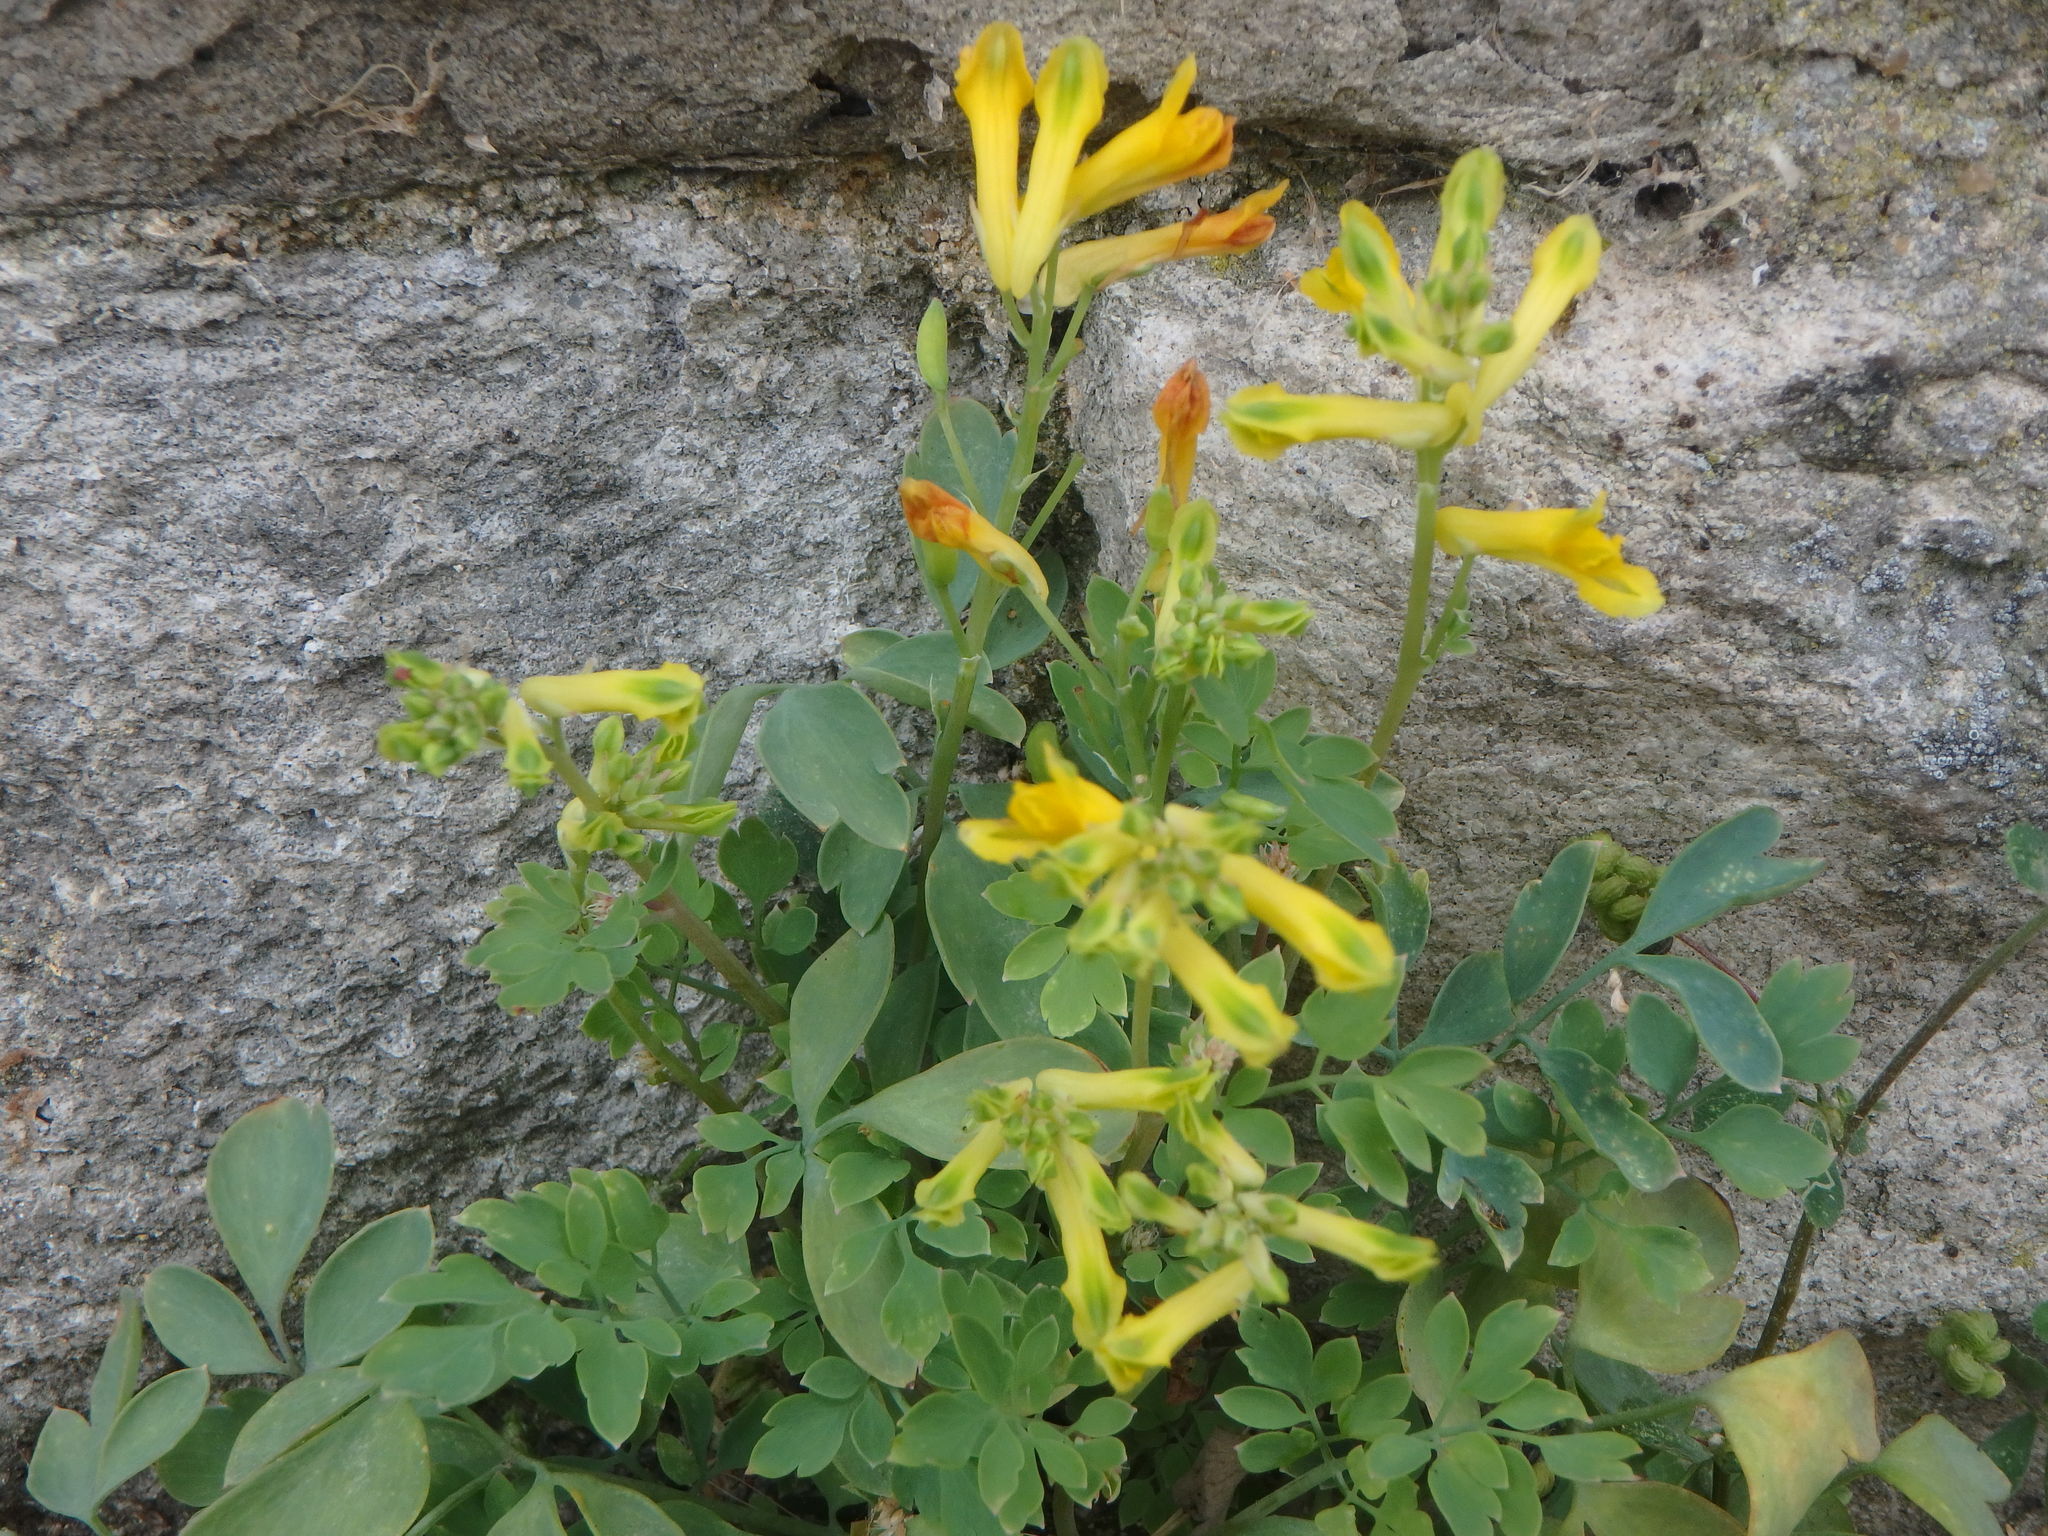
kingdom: Plantae
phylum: Tracheophyta
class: Magnoliopsida
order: Ranunculales
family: Papaveraceae
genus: Pseudofumaria
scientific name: Pseudofumaria lutea
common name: Yellow corydalis
